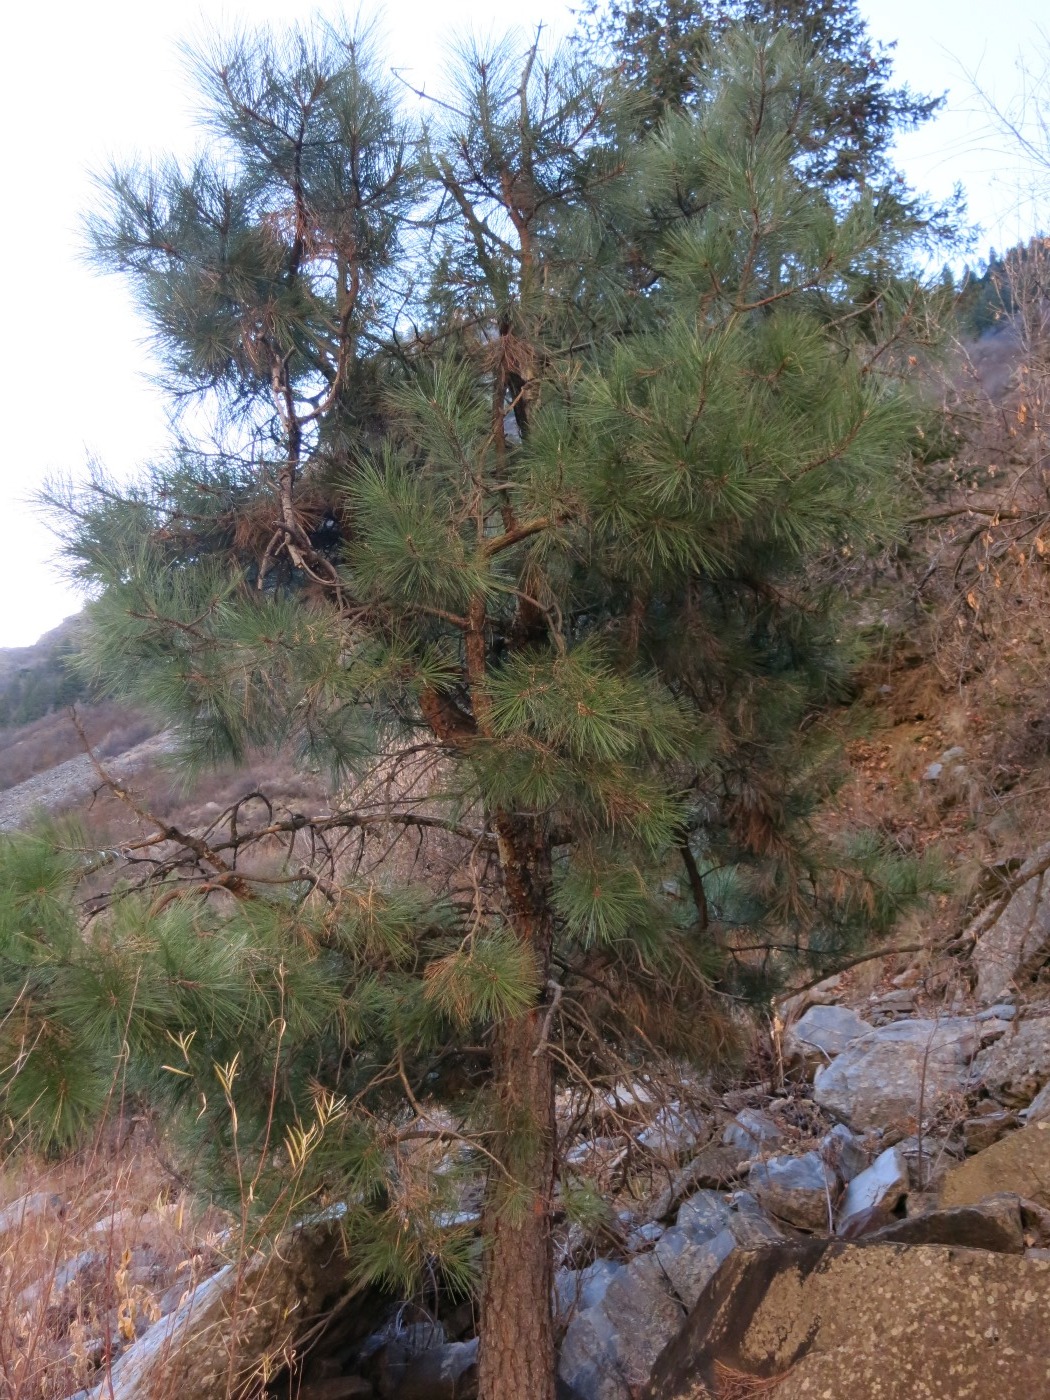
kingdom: Plantae
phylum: Tracheophyta
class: Pinopsida
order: Pinales
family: Pinaceae
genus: Pinus
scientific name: Pinus ponderosa
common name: Western yellow-pine
